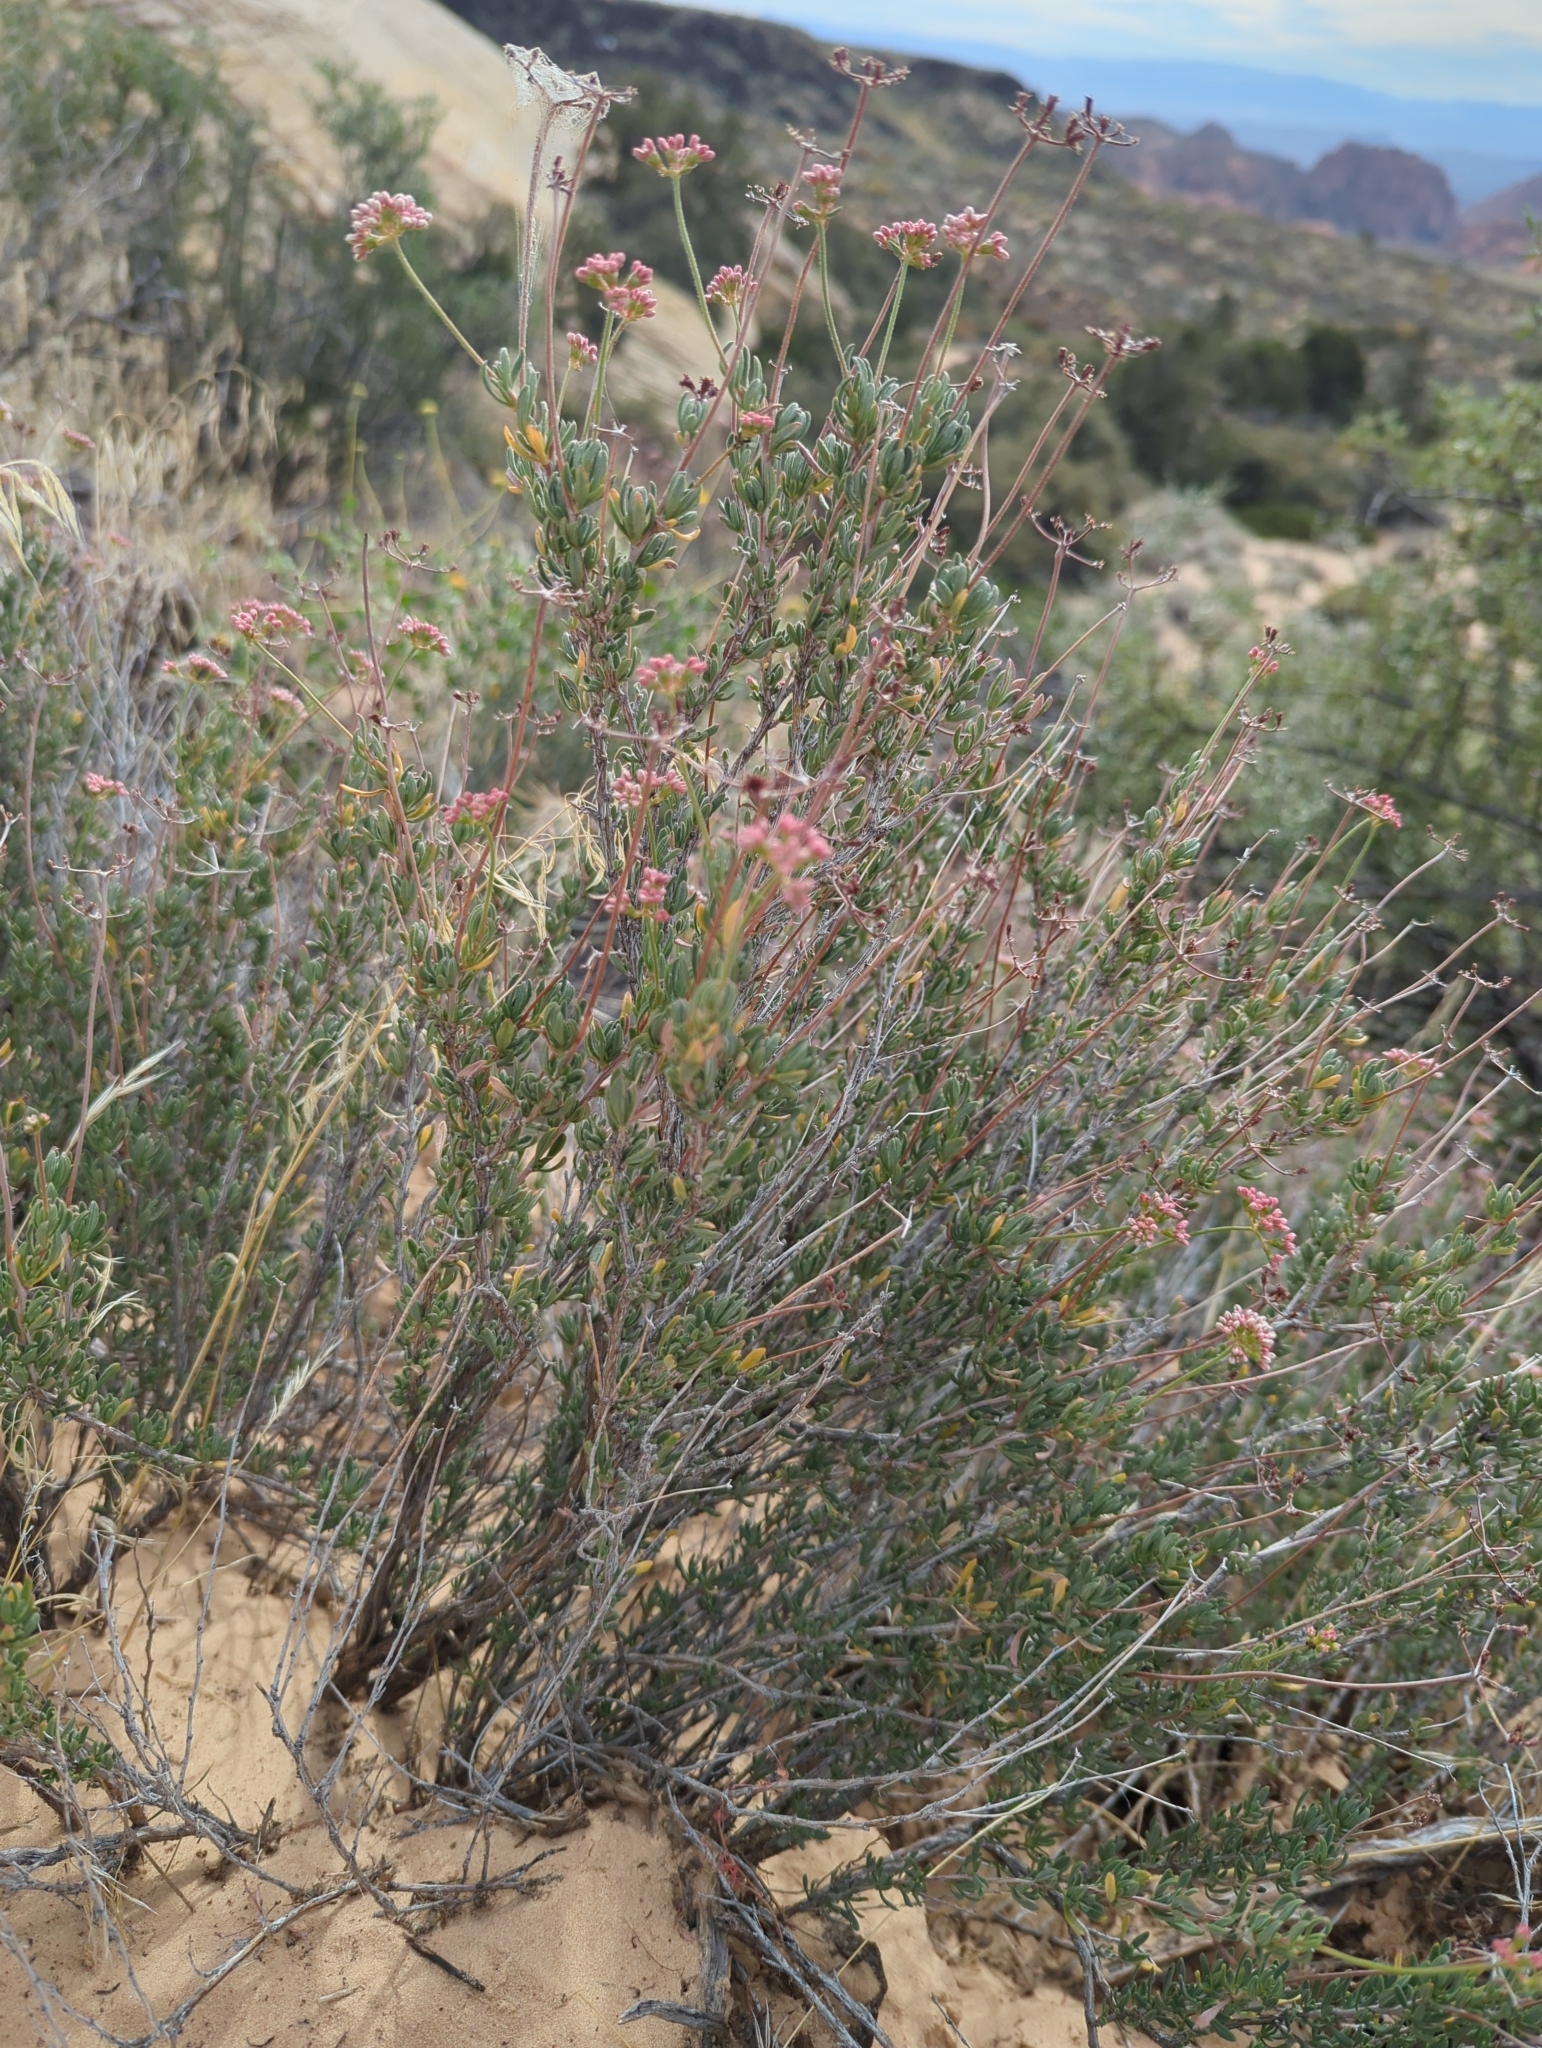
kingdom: Plantae
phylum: Tracheophyta
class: Magnoliopsida
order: Caryophyllales
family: Polygonaceae
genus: Eriogonum
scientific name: Eriogonum fasciculatum
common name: California wild buckwheat
